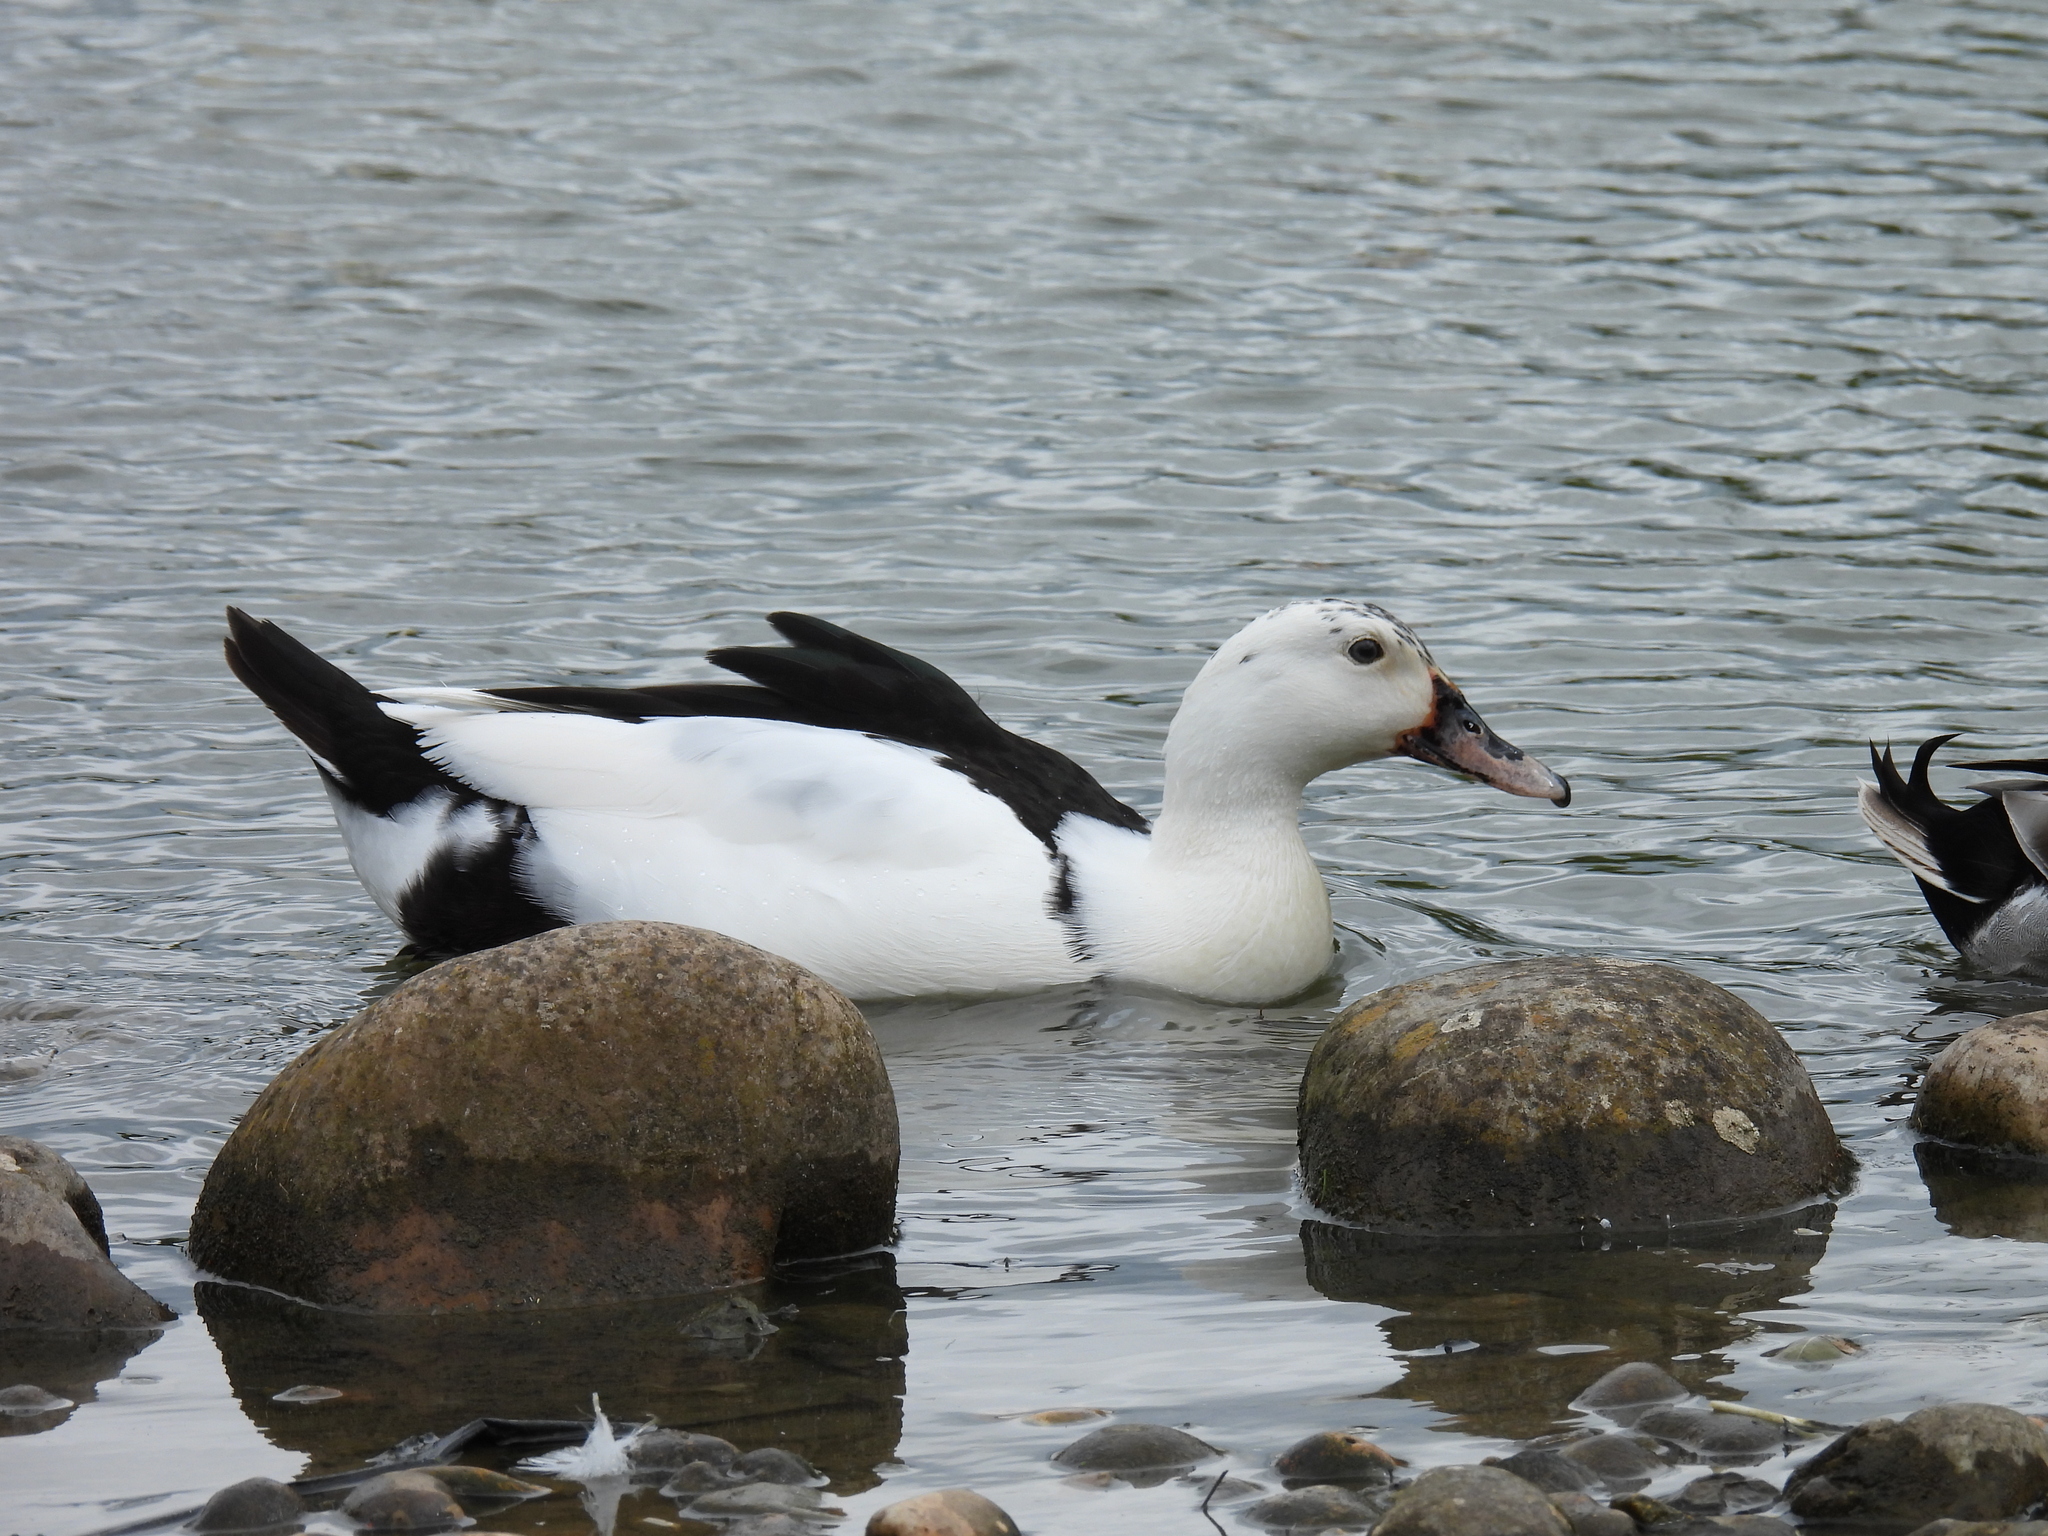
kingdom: Animalia
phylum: Chordata
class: Aves
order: Anseriformes
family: Anatidae
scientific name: Anatidae
